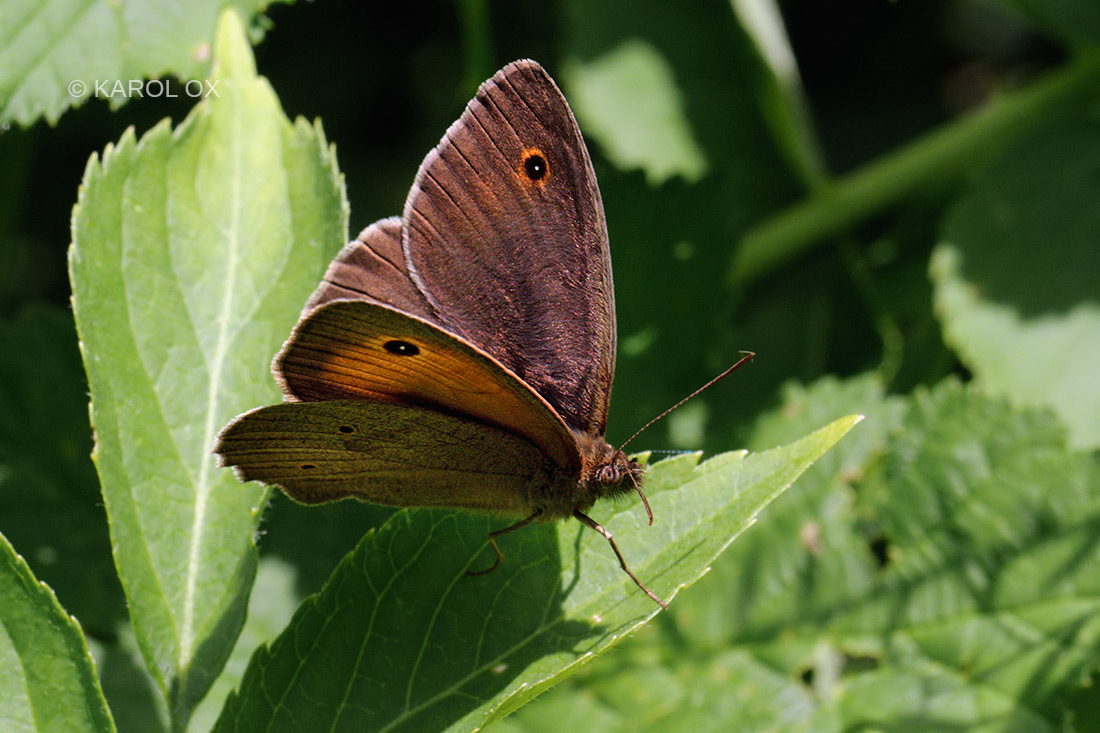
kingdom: Animalia
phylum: Arthropoda
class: Insecta
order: Lepidoptera
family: Nymphalidae
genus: Maniola
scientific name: Maniola jurtina
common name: Meadow brown
